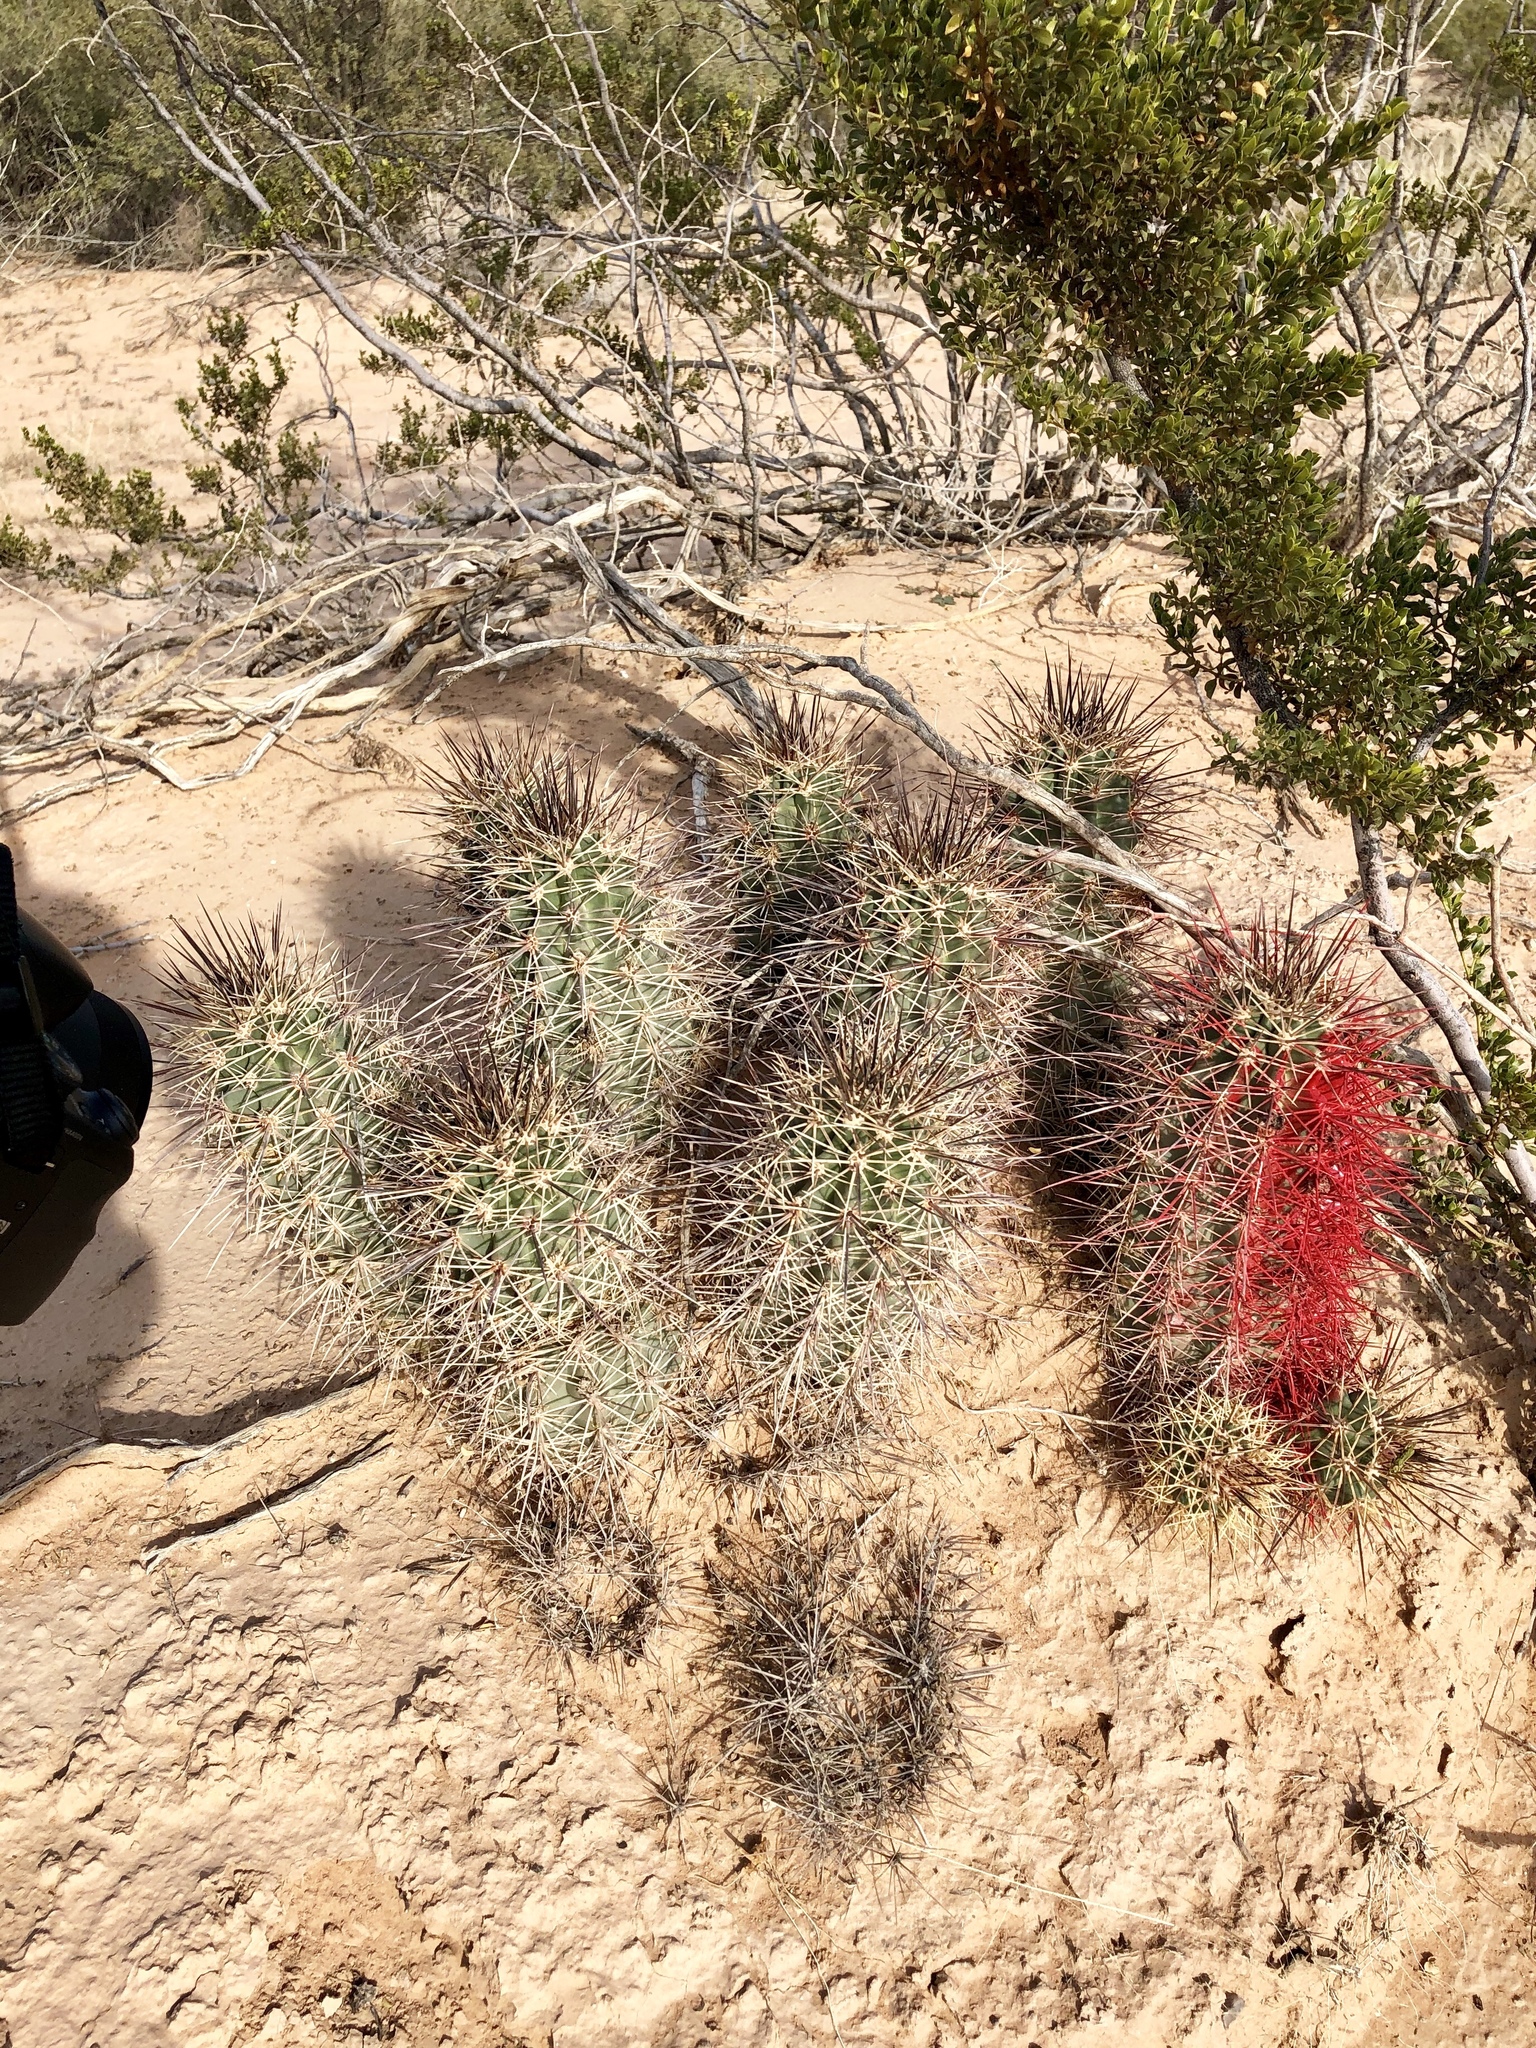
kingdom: Plantae
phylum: Tracheophyta
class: Magnoliopsida
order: Caryophyllales
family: Cactaceae
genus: Echinocereus
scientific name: Echinocereus coccineus
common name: Scarlet hedgehog cactus
